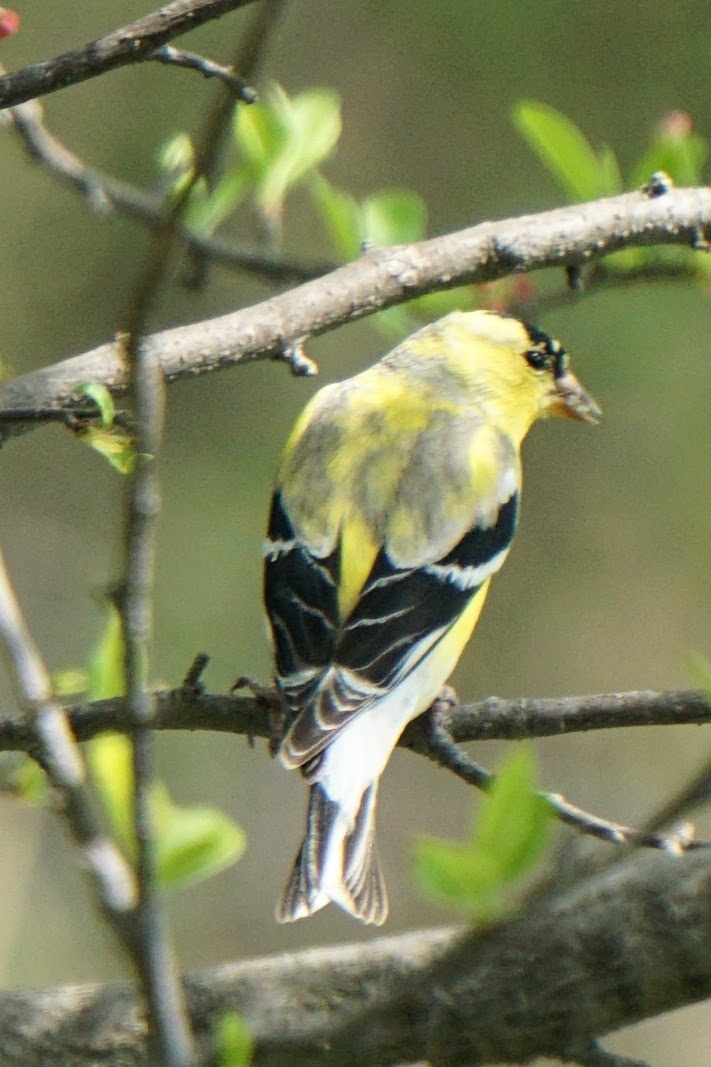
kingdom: Animalia
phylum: Chordata
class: Aves
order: Passeriformes
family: Fringillidae
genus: Spinus
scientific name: Spinus tristis
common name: American goldfinch
